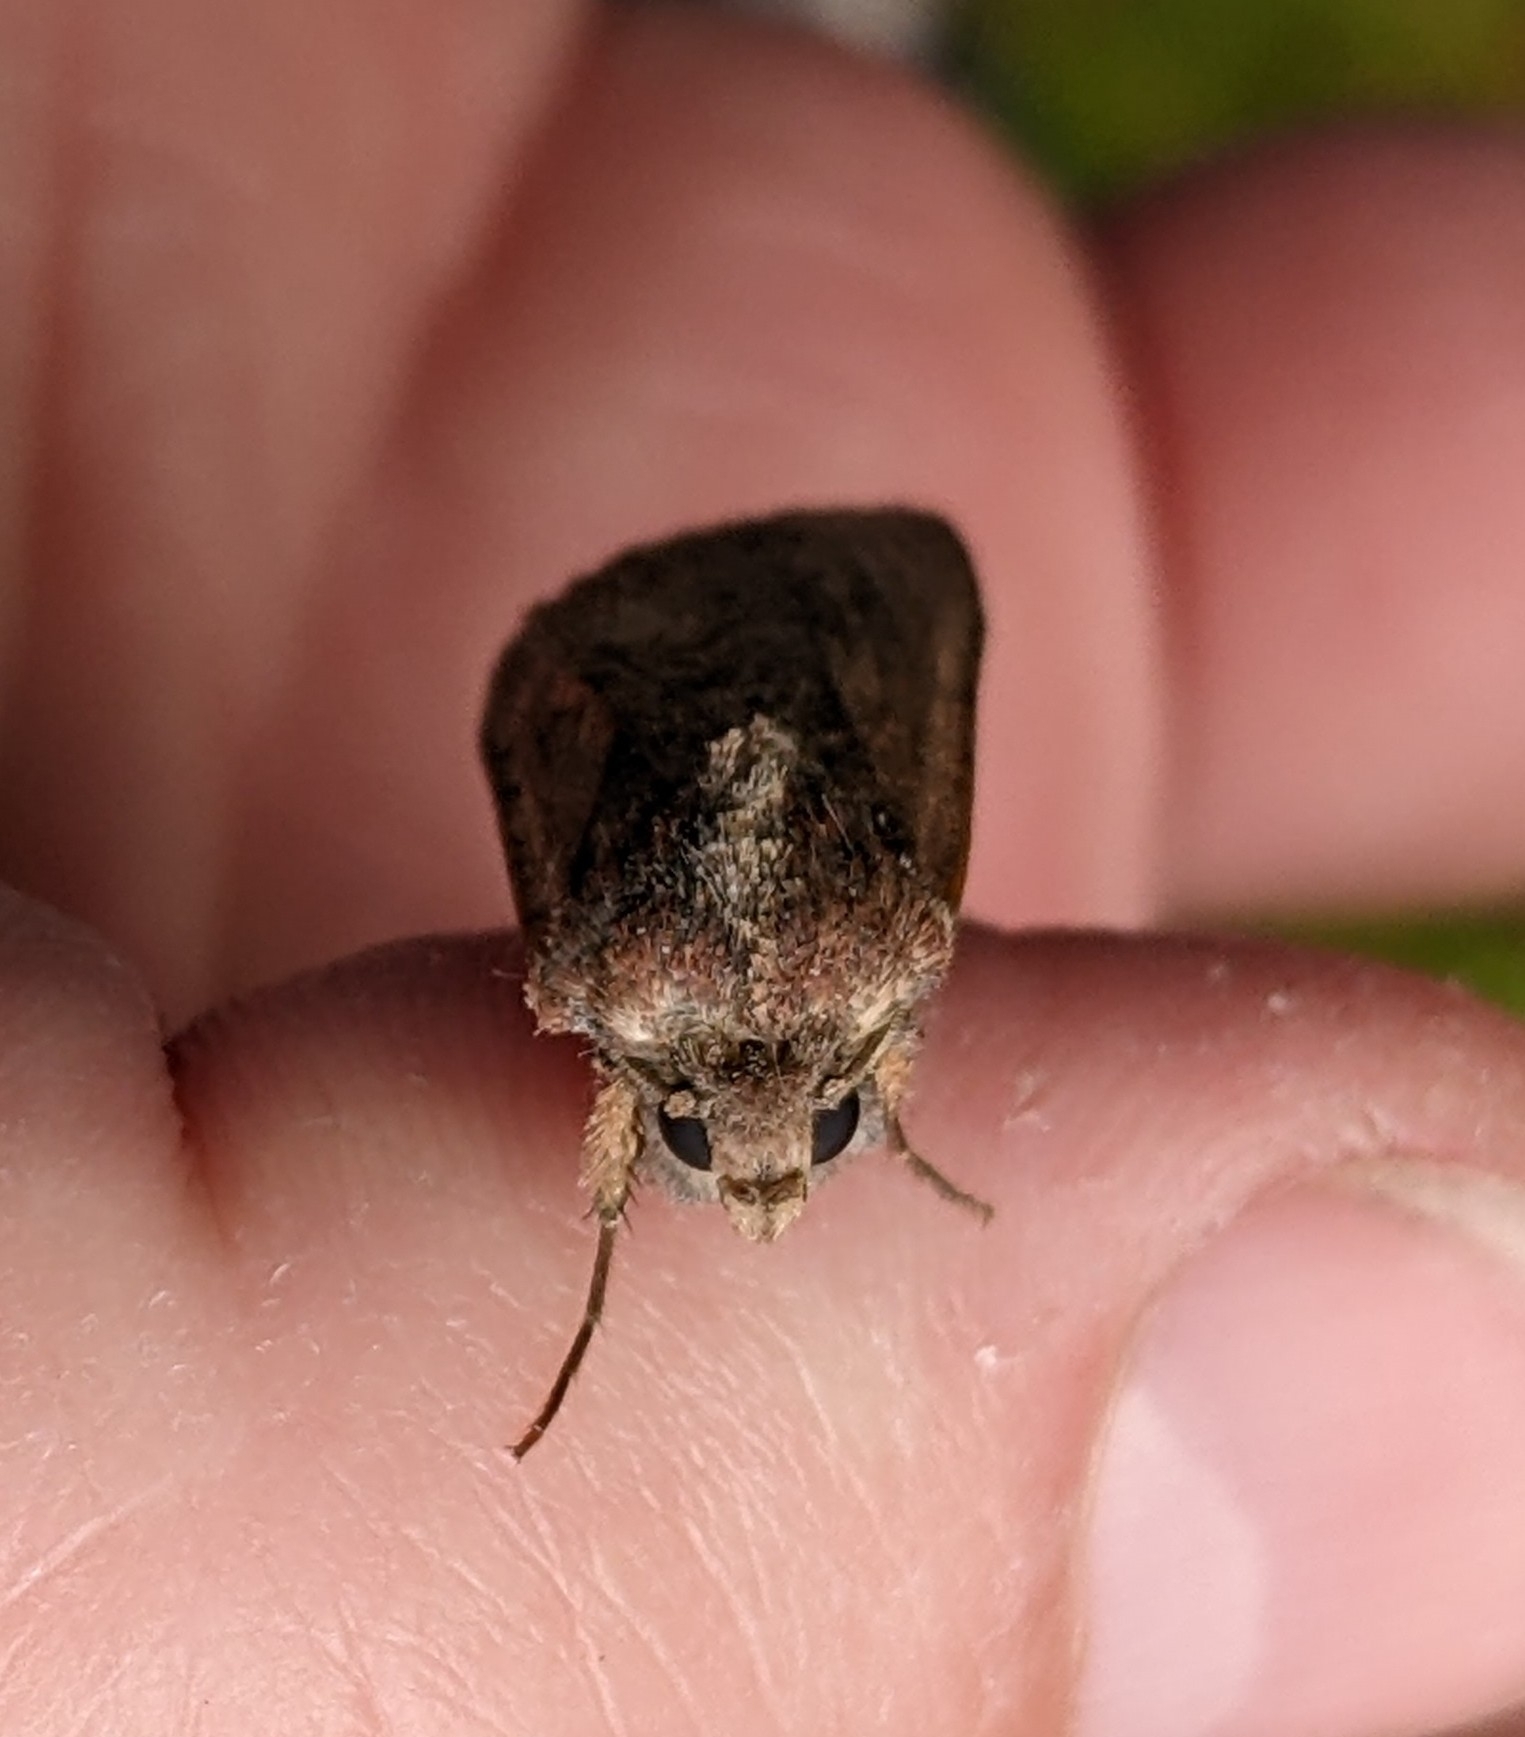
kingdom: Animalia
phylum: Arthropoda
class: Insecta
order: Lepidoptera
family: Noctuidae
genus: Peridroma
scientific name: Peridroma saucia
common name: Pearly underwing
